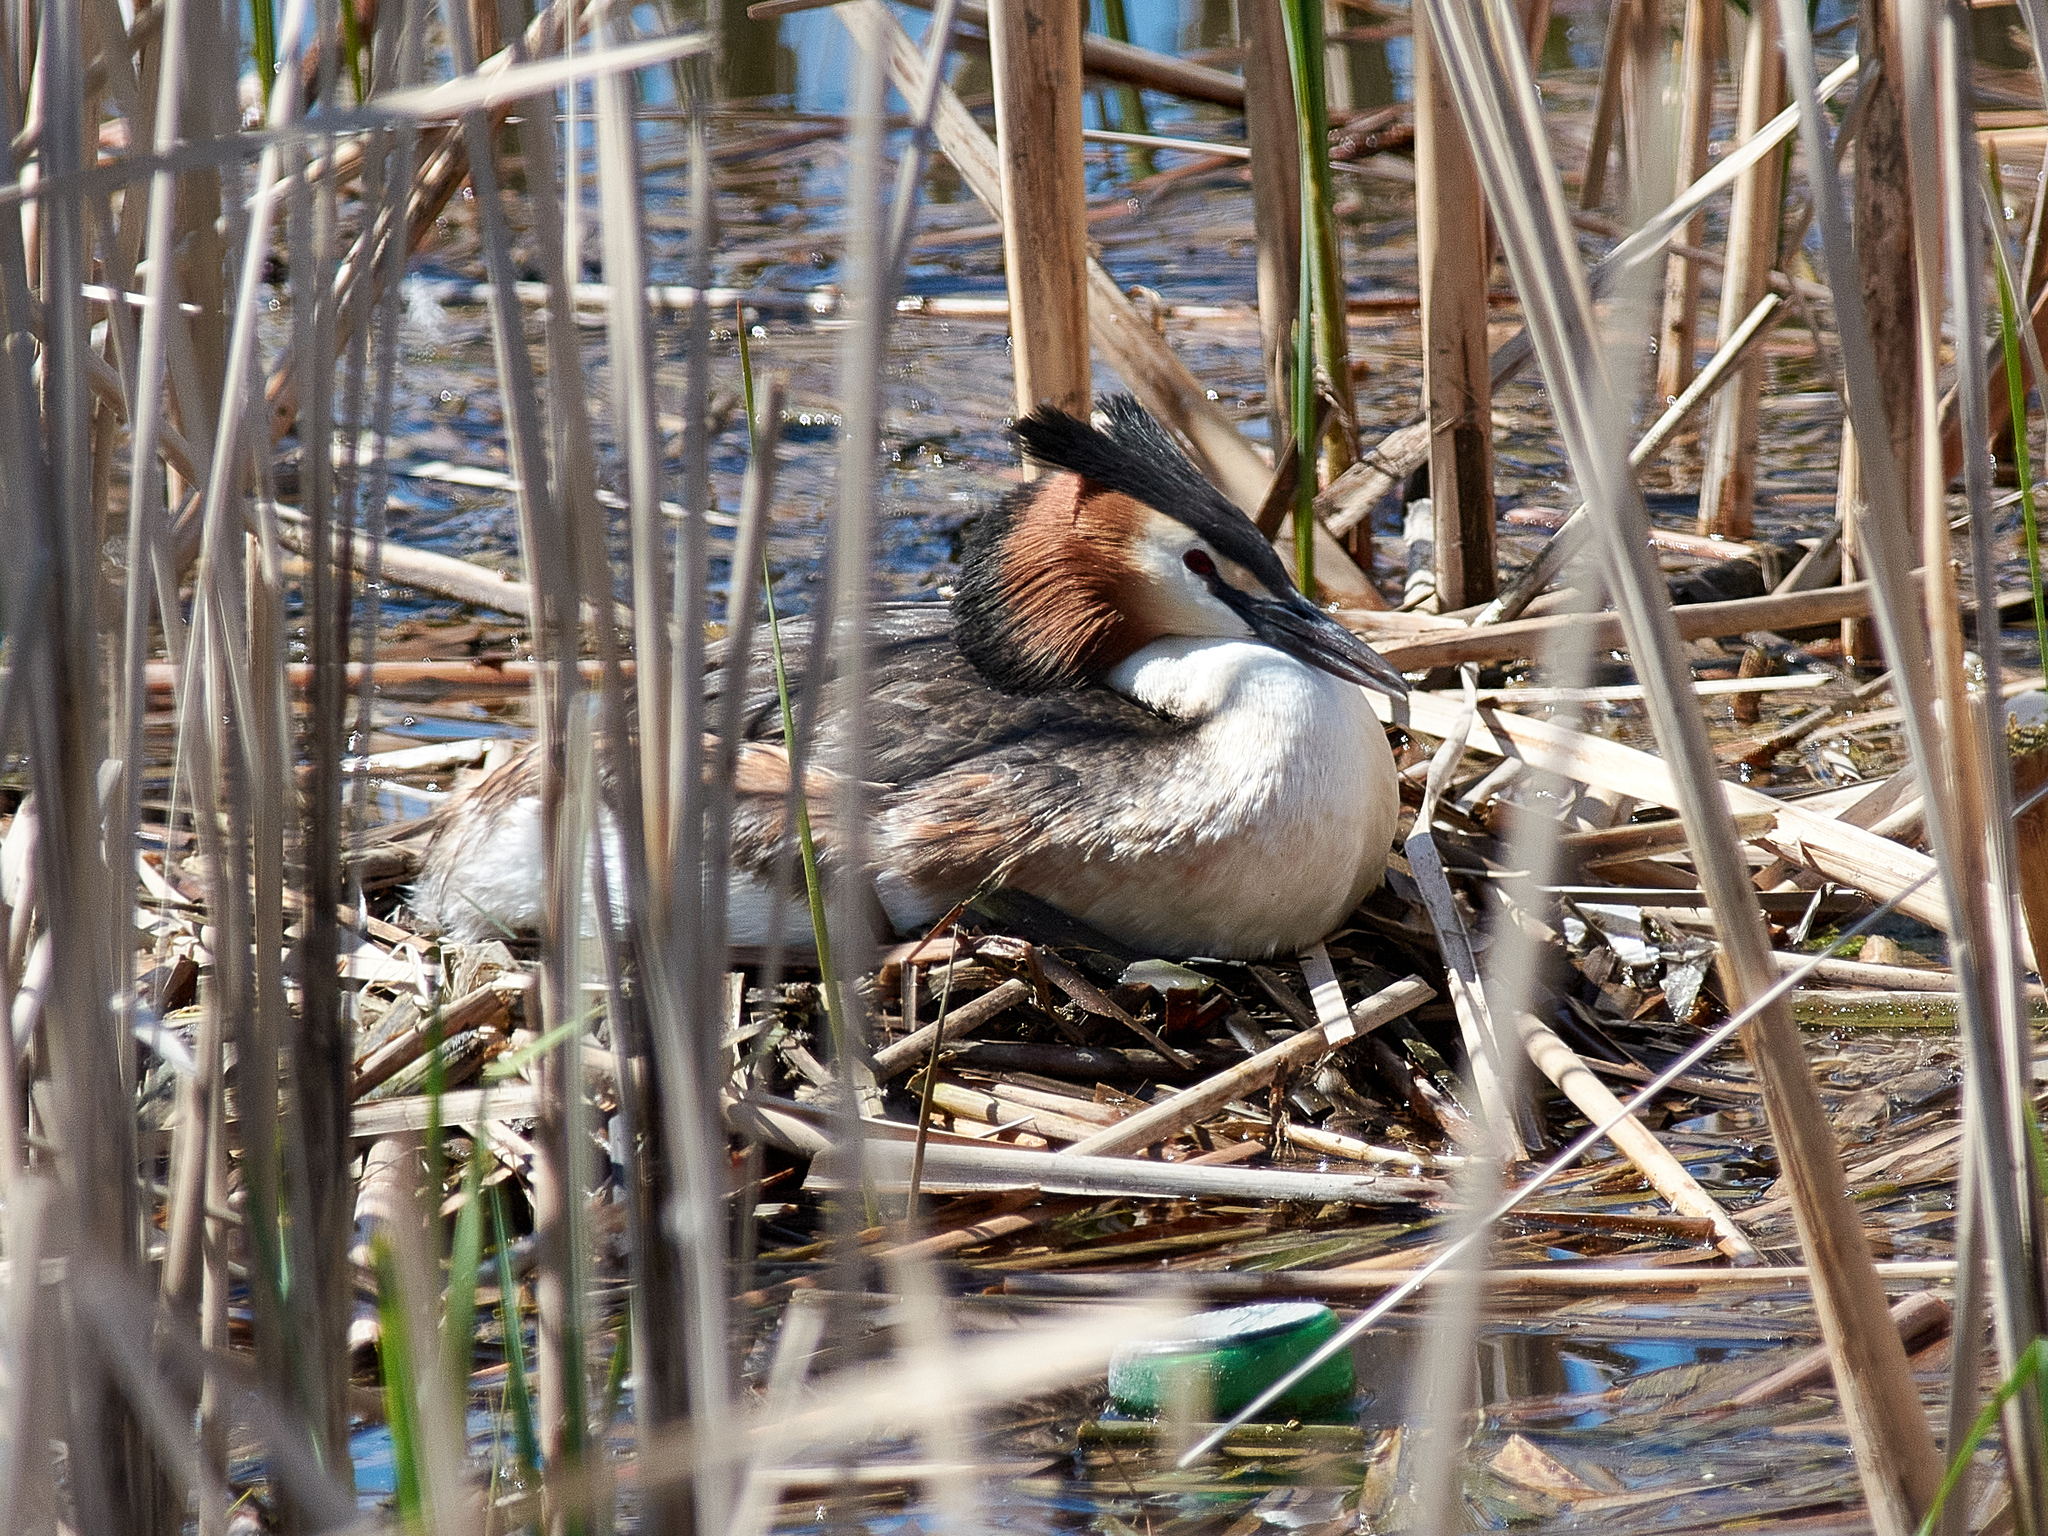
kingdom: Animalia
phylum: Chordata
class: Aves
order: Podicipediformes
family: Podicipedidae
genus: Podiceps
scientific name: Podiceps cristatus
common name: Great crested grebe
